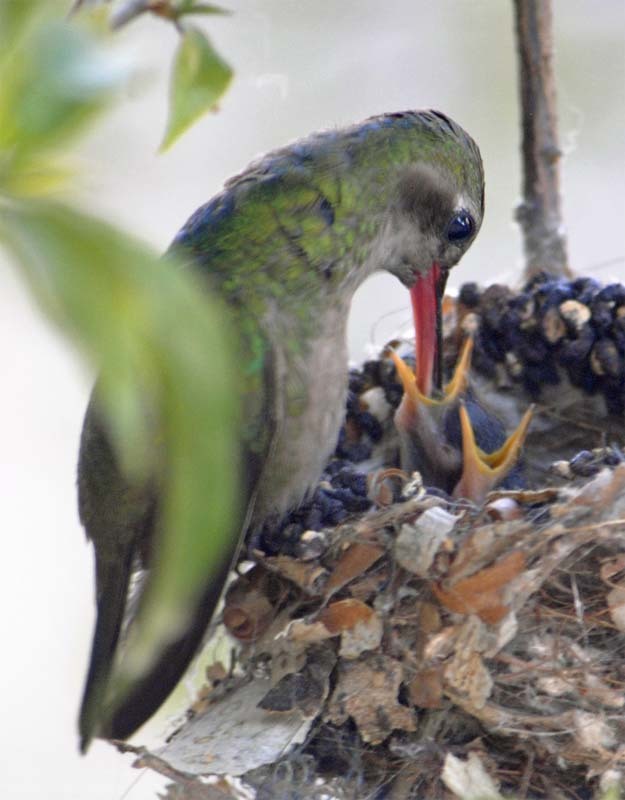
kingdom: Animalia
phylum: Chordata
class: Aves
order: Apodiformes
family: Trochilidae
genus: Cynanthus
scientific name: Cynanthus latirostris
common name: Broad-billed hummingbird
